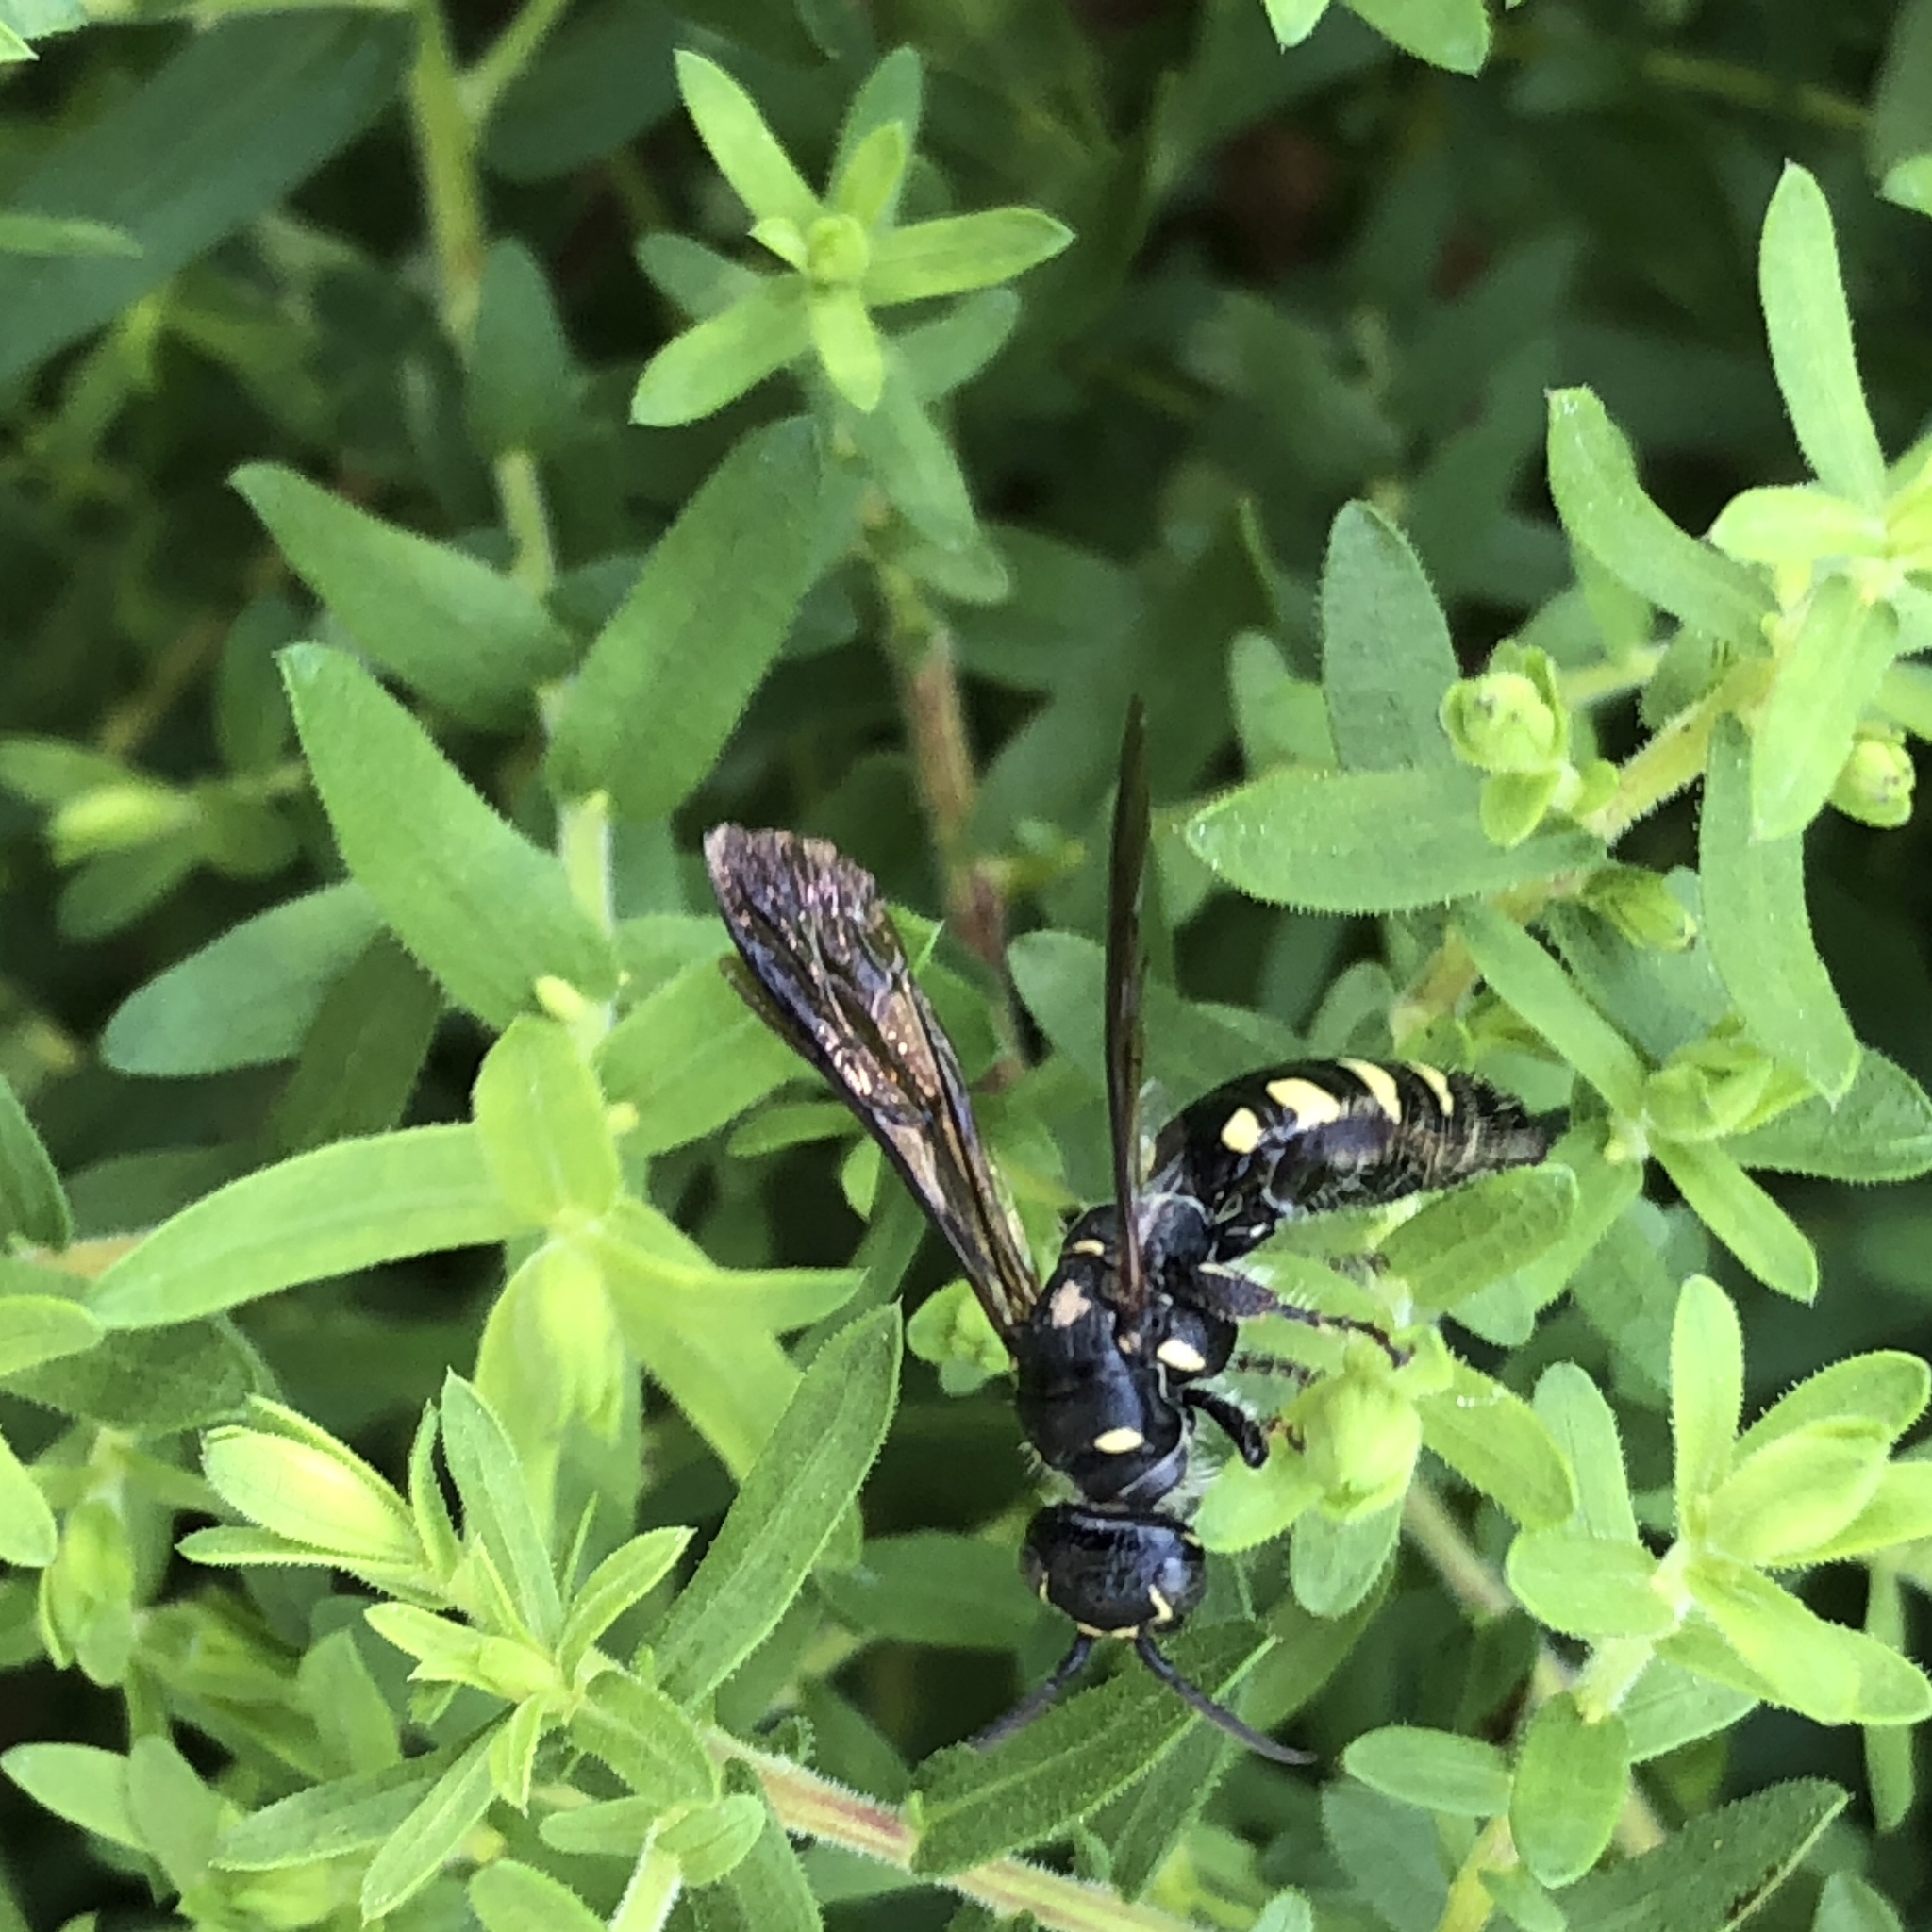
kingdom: Animalia
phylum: Arthropoda
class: Insecta
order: Hymenoptera
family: Tiphiidae
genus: Myzinum
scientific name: Myzinum obscurum
